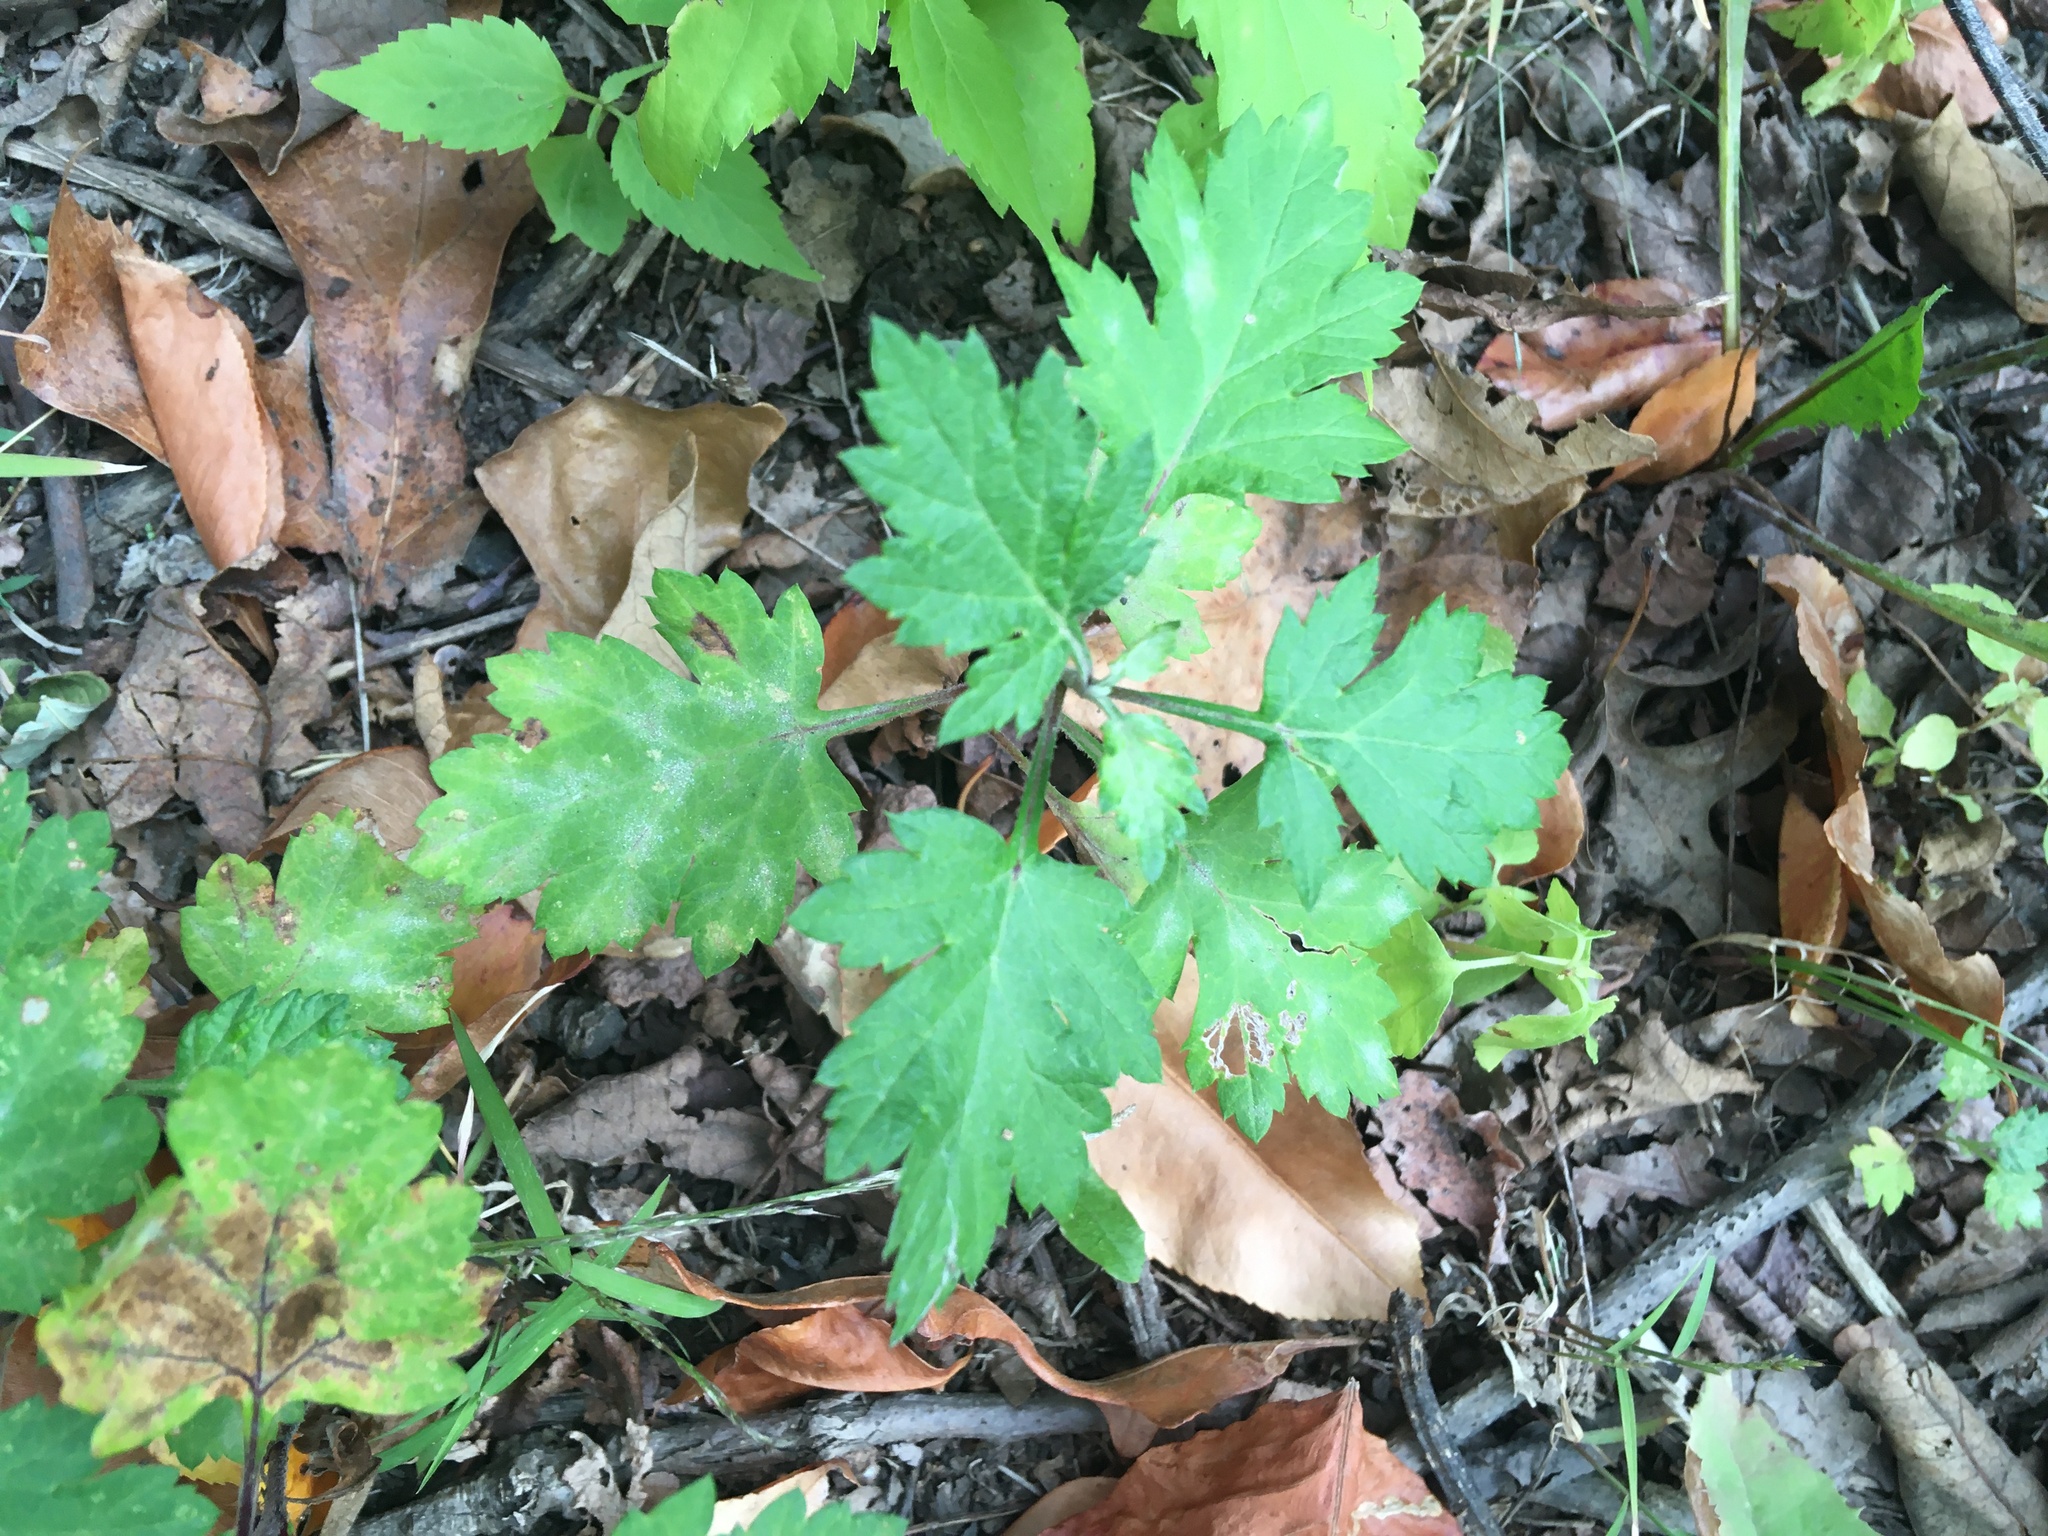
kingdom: Plantae
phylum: Tracheophyta
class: Magnoliopsida
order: Asterales
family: Asteraceae
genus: Artemisia
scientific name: Artemisia vulgaris
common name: Mugwort
